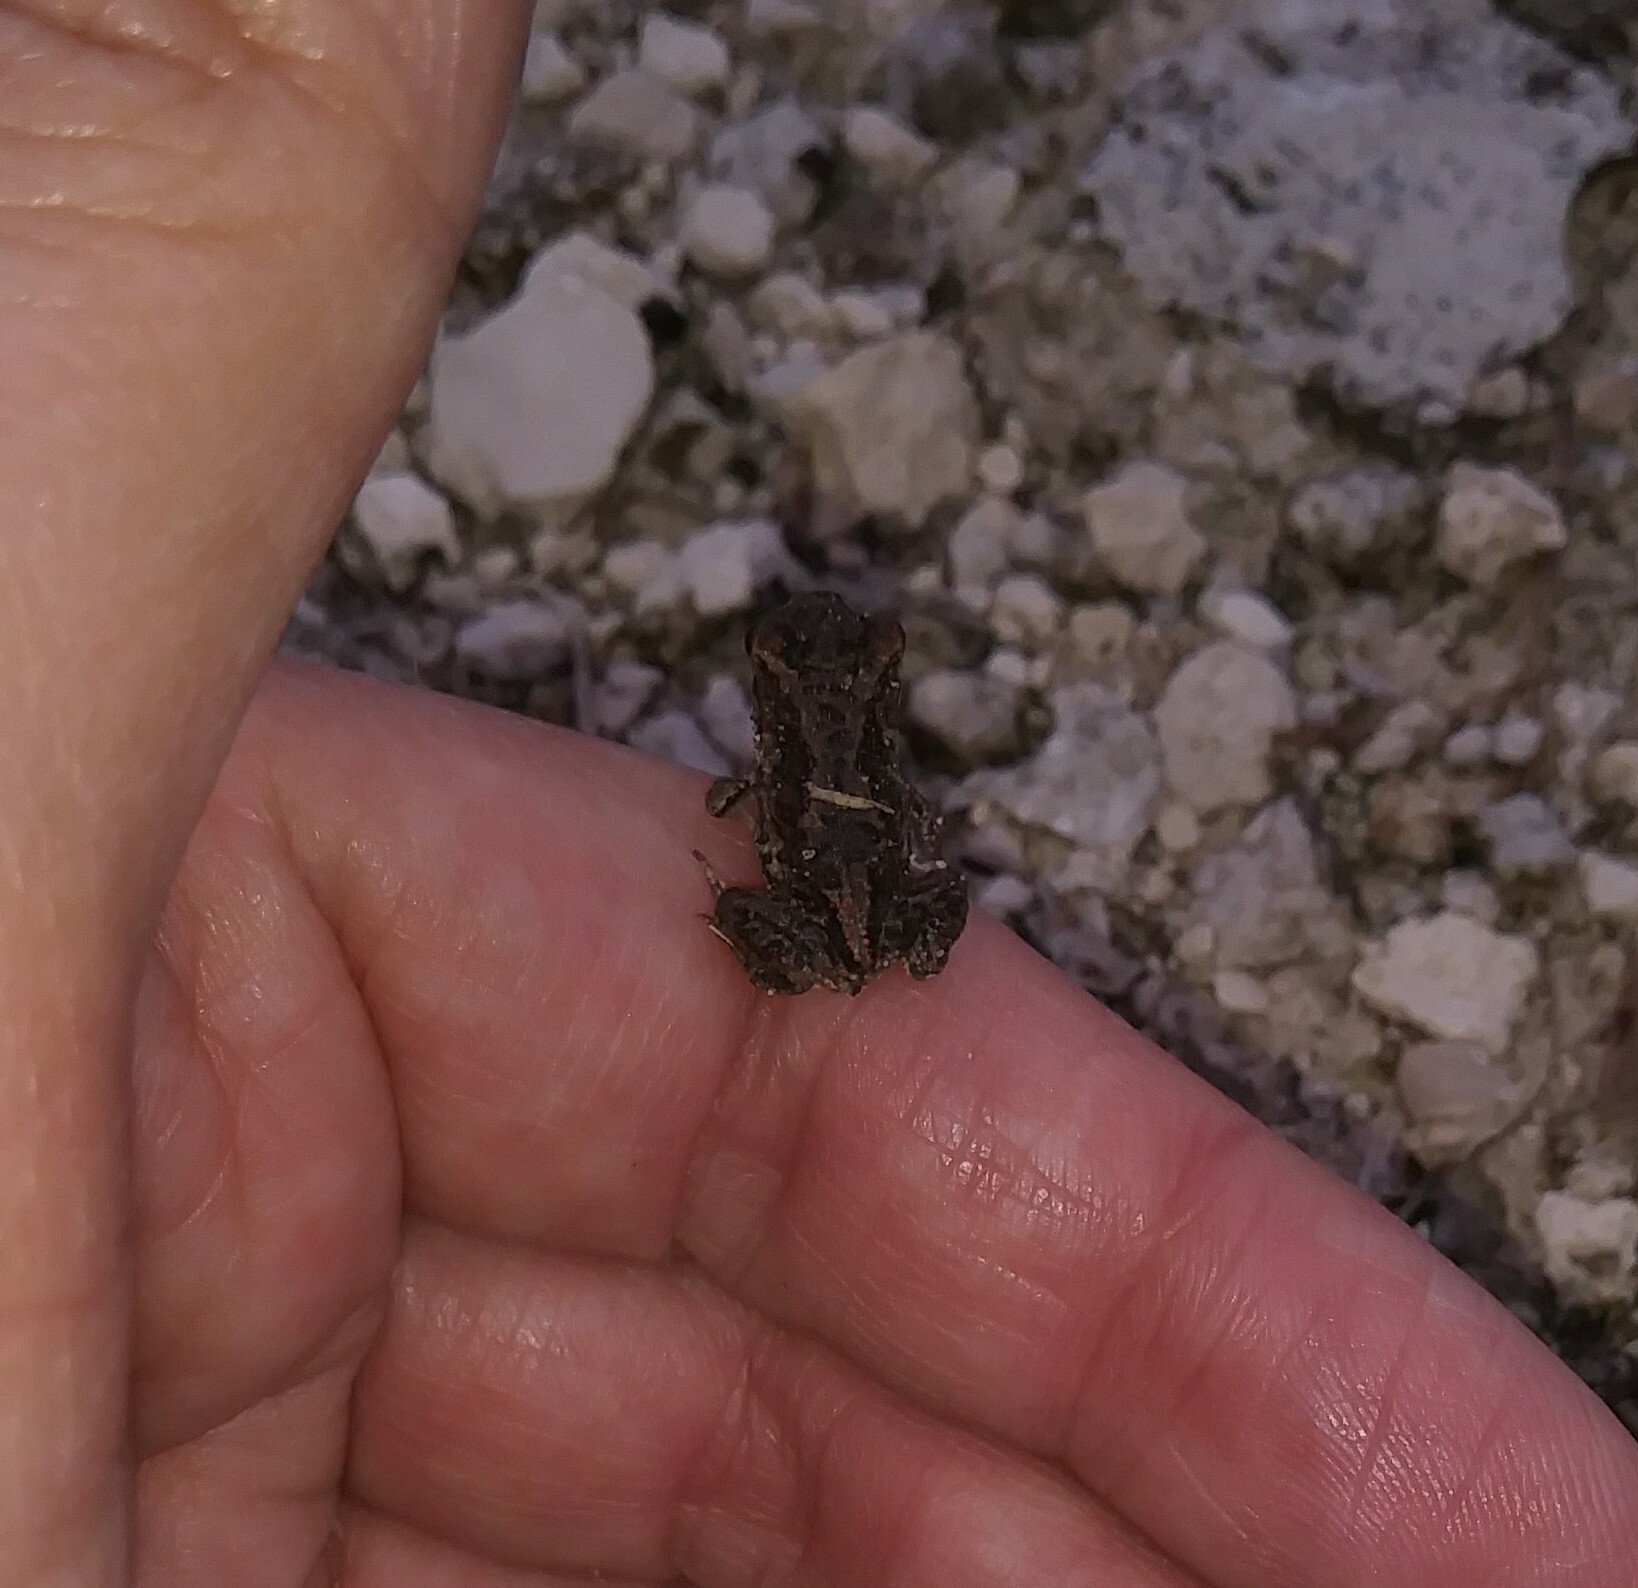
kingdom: Animalia
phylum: Chordata
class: Amphibia
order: Anura
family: Scaphiopodidae
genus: Scaphiopus
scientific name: Scaphiopus holbrookii
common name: Eastern spadefoot toad
